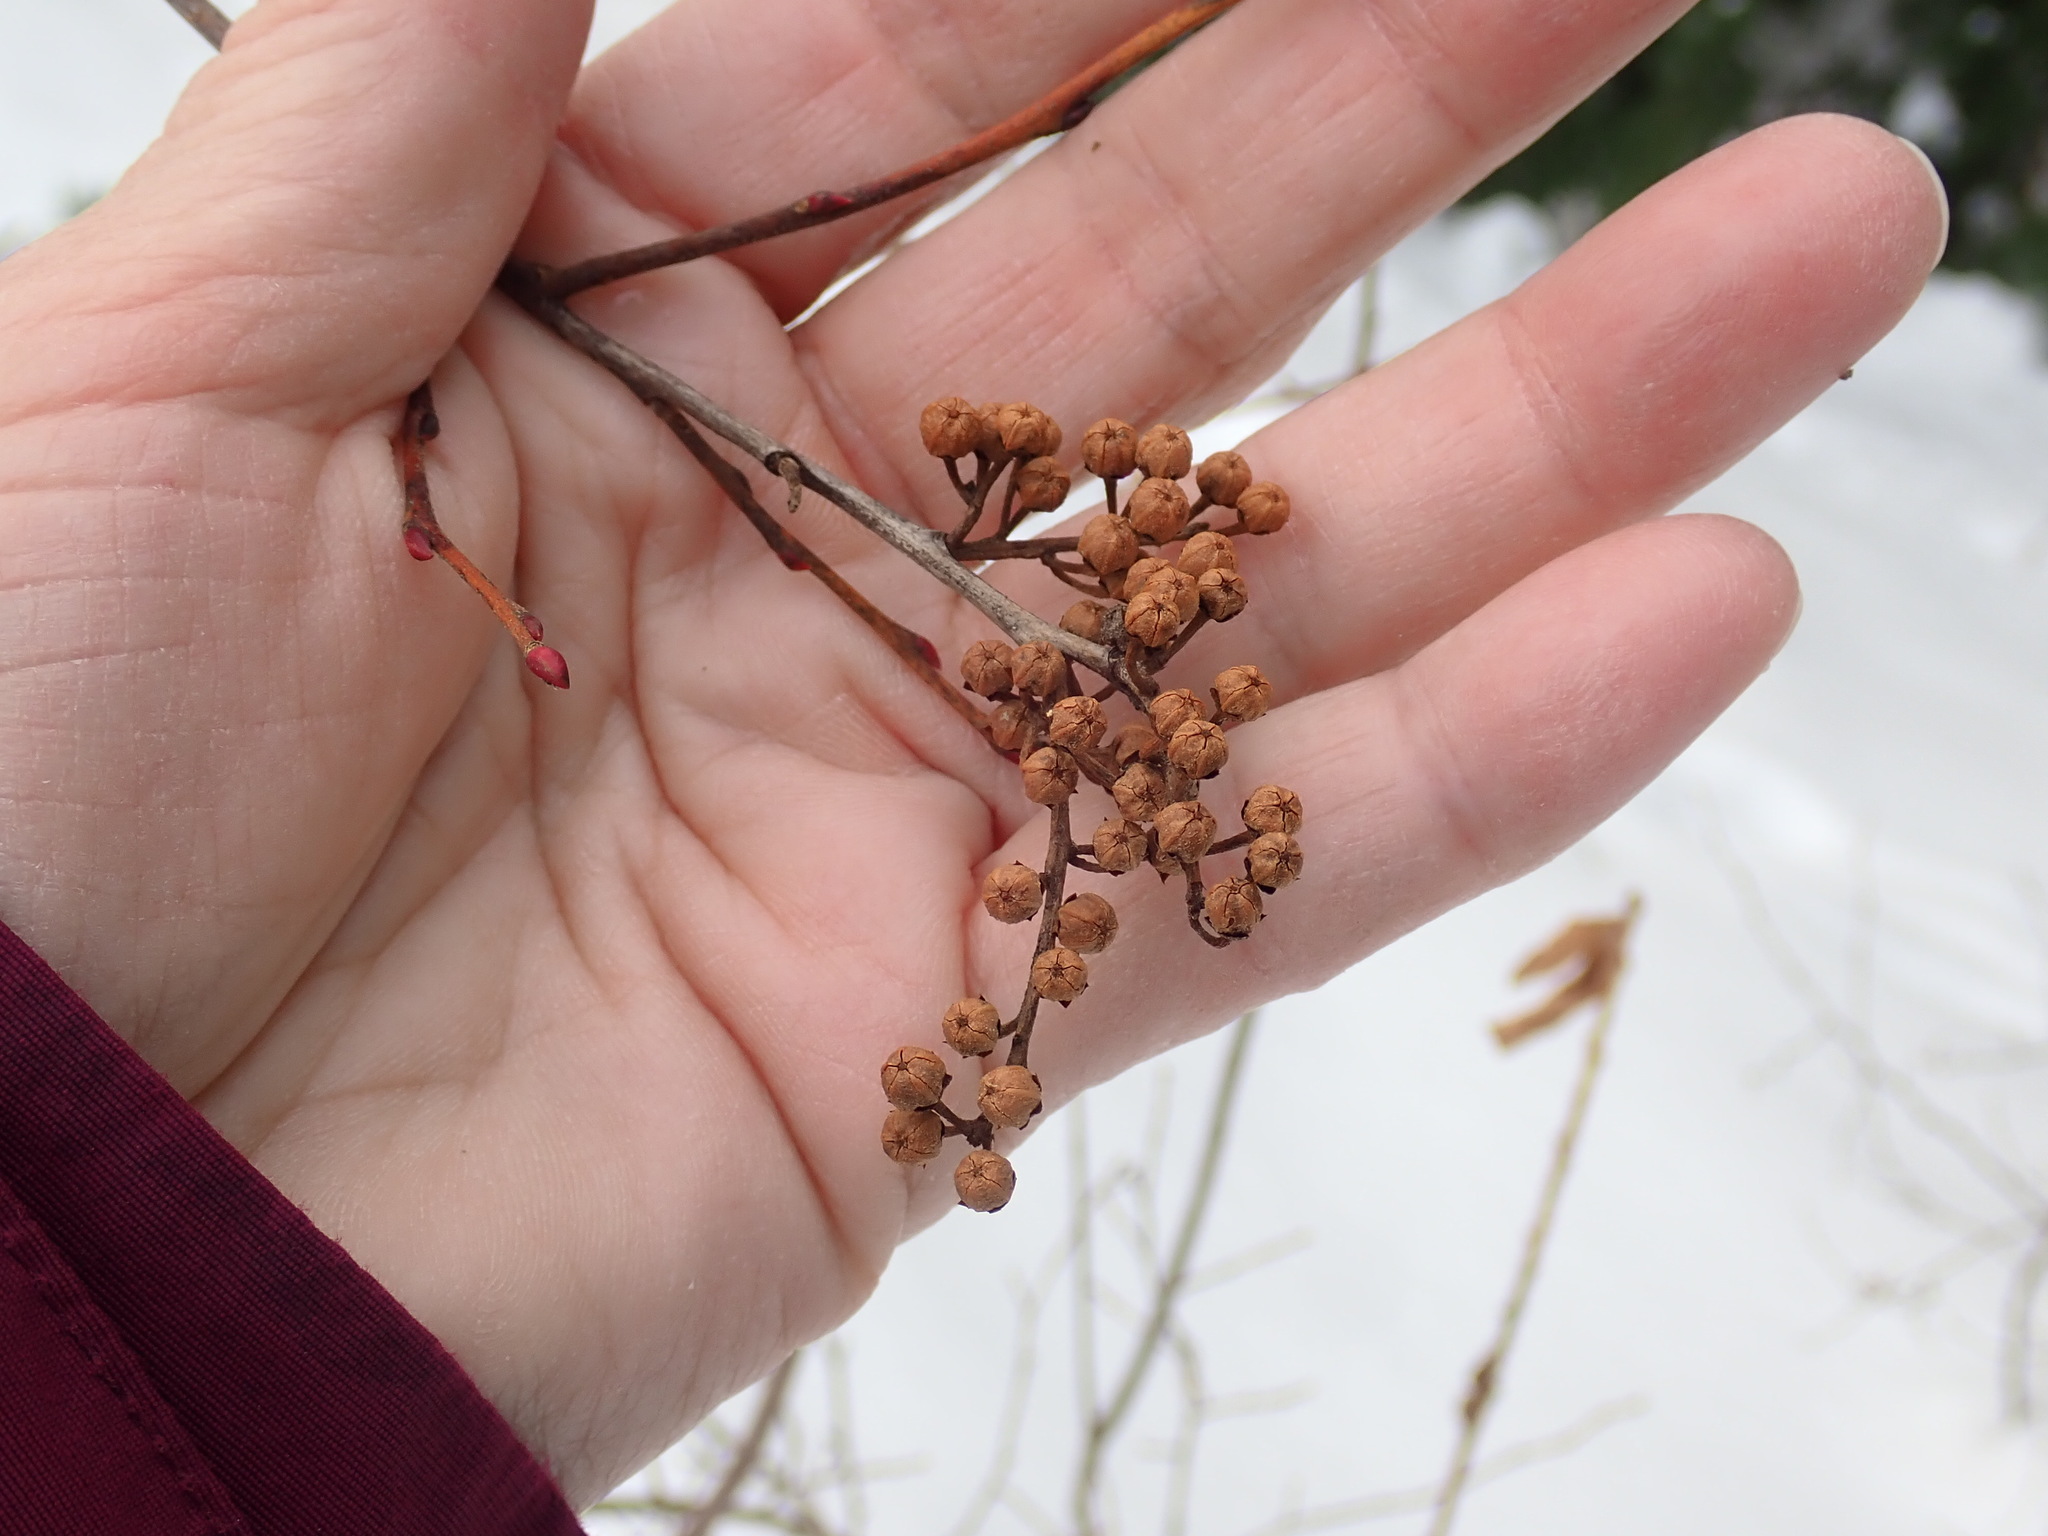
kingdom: Plantae
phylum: Tracheophyta
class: Magnoliopsida
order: Ericales
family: Ericaceae
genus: Lyonia
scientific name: Lyonia ligustrina
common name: Maleberry
